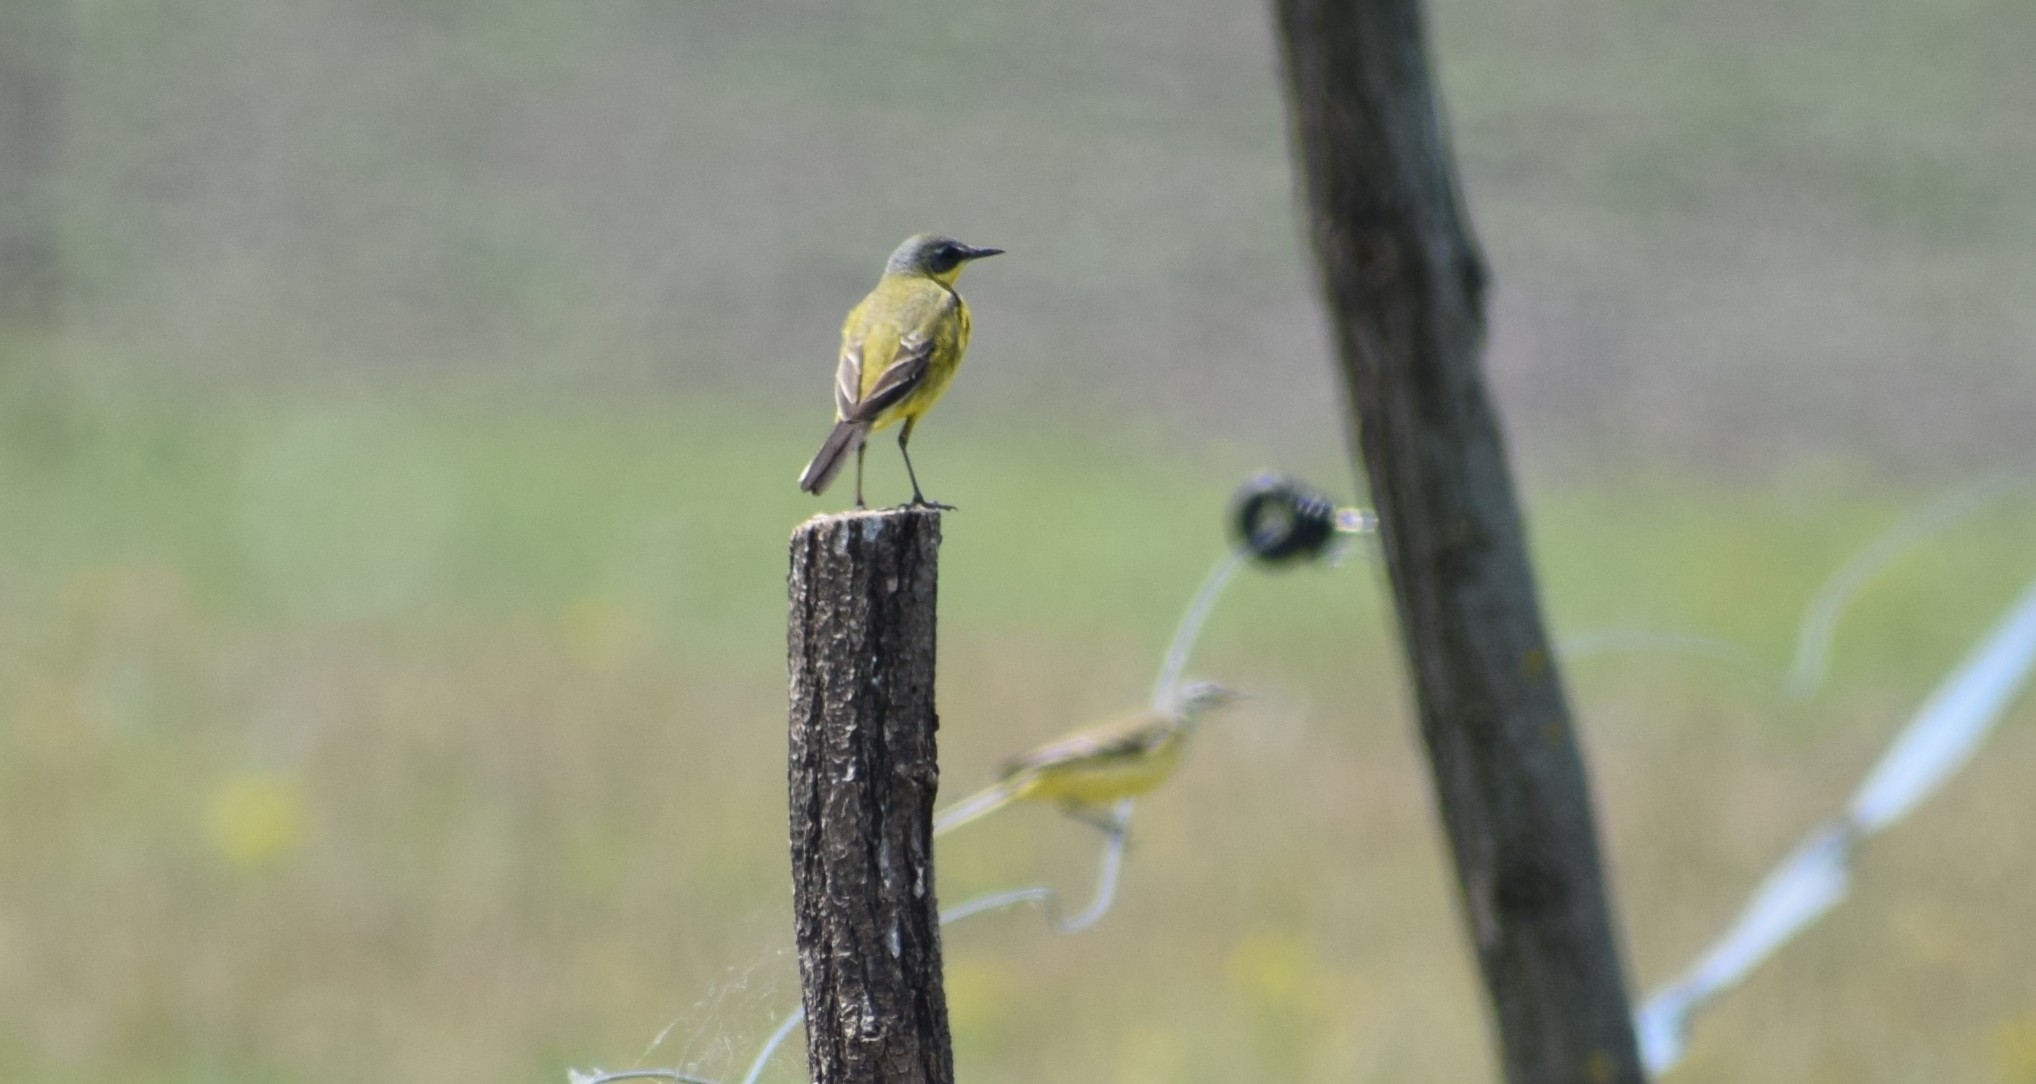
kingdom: Animalia
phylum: Chordata
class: Aves
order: Passeriformes
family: Motacillidae
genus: Motacilla
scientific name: Motacilla flava
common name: Western yellow wagtail
